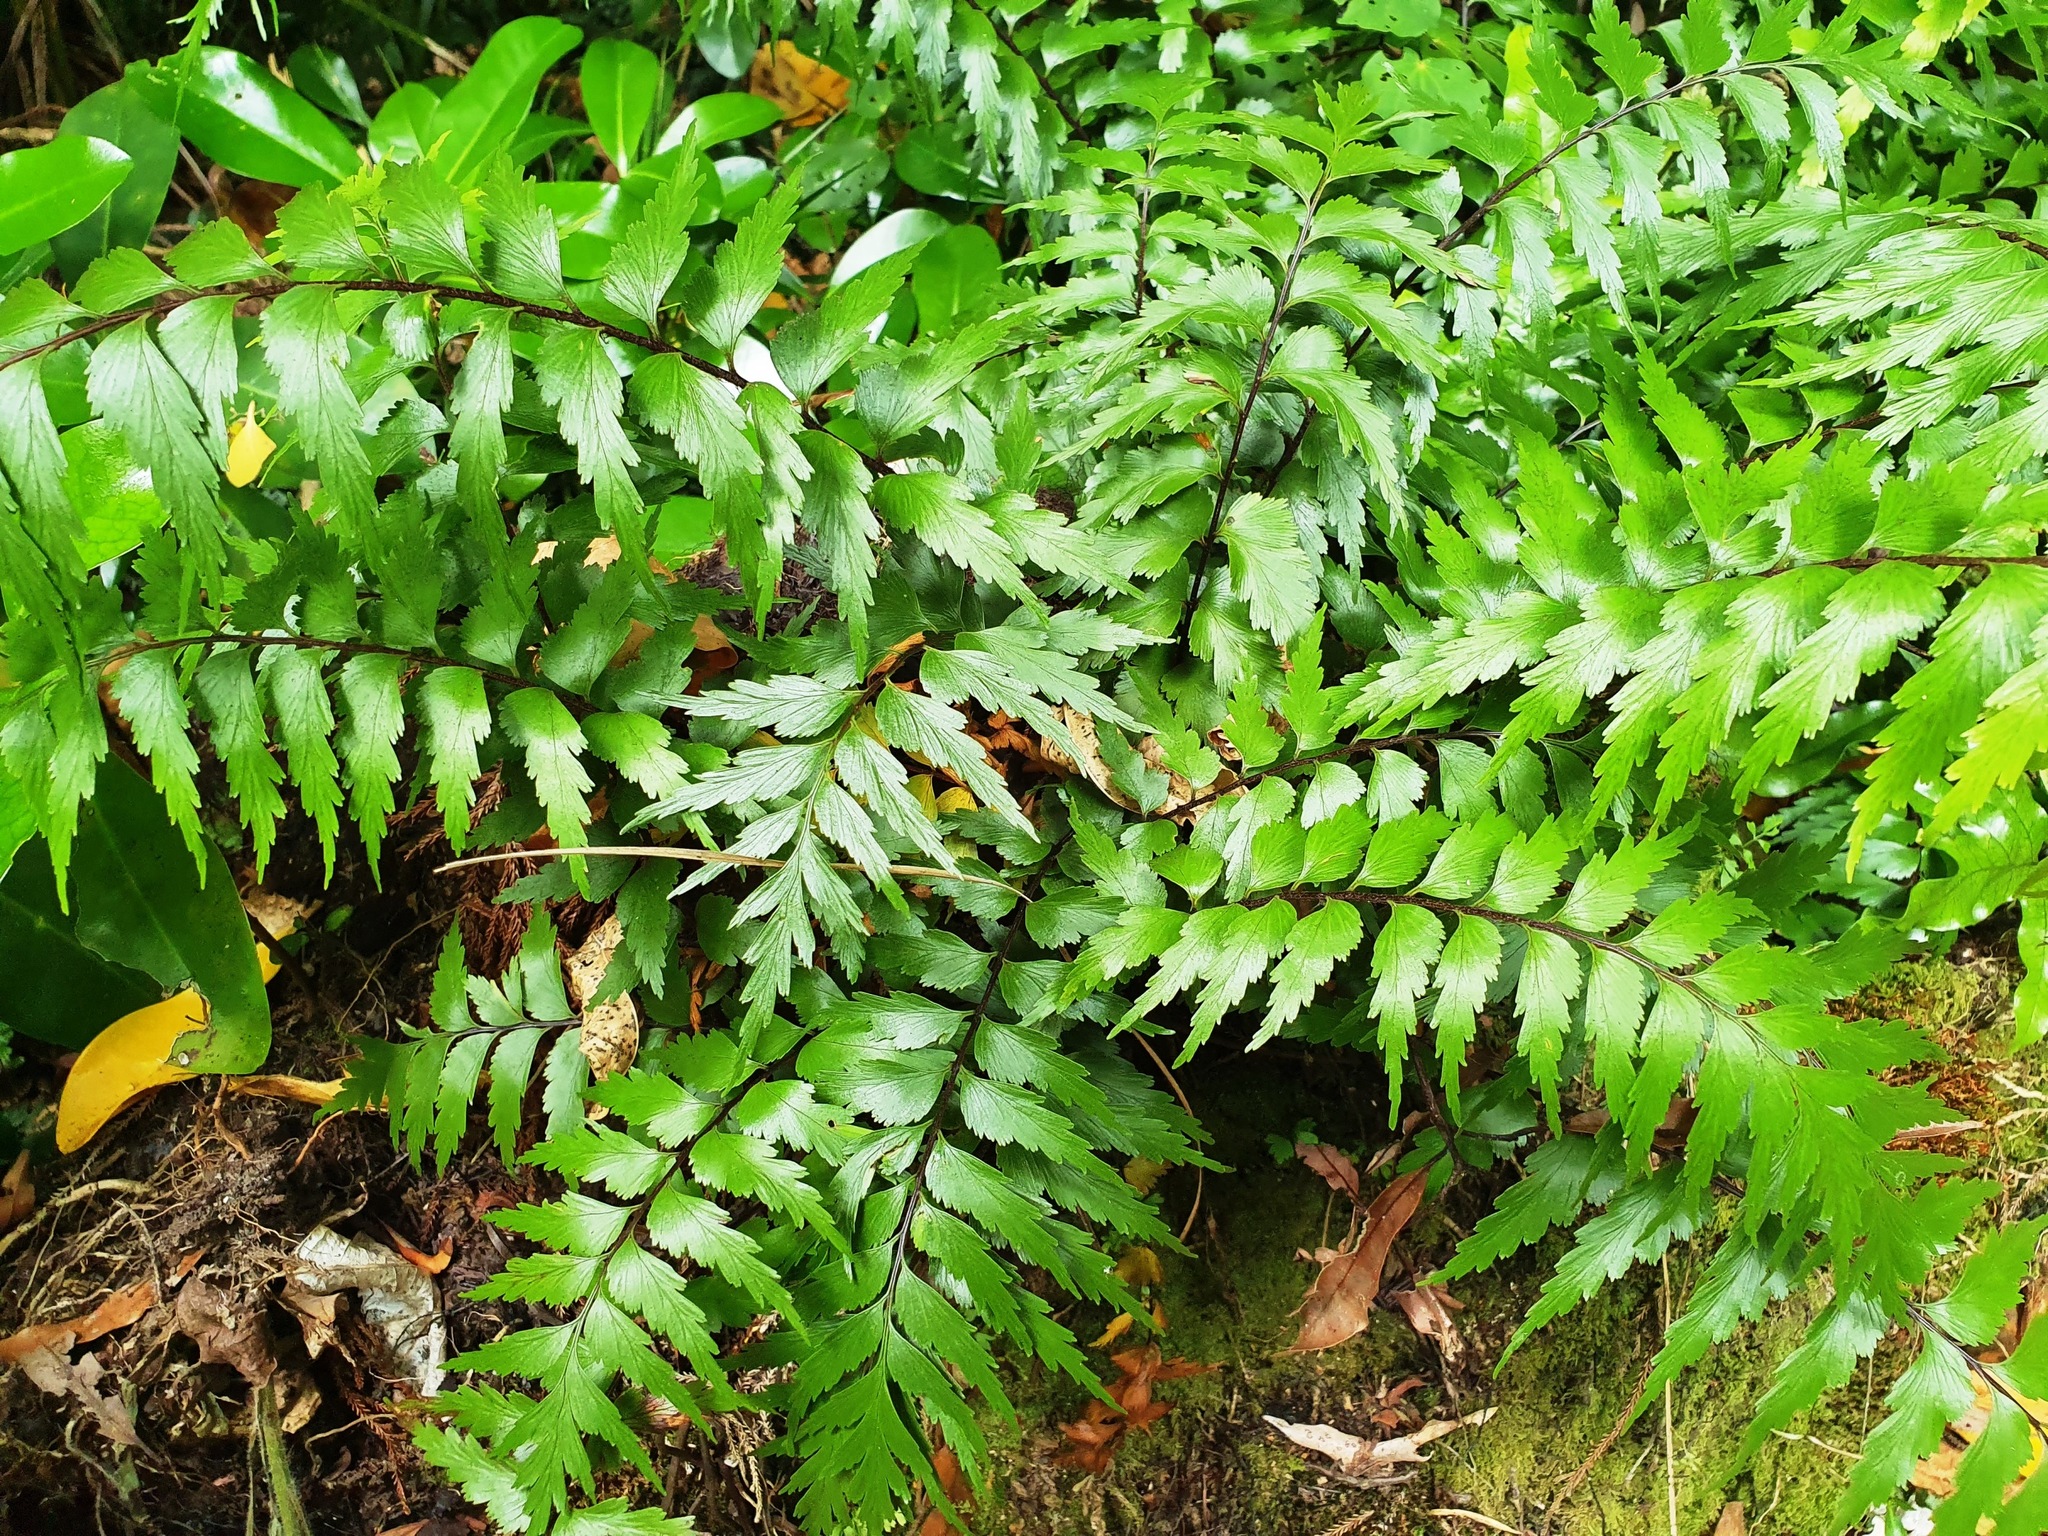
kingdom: Plantae
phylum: Tracheophyta
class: Polypodiopsida
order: Polypodiales
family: Aspleniaceae
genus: Asplenium
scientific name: Asplenium polyodon
